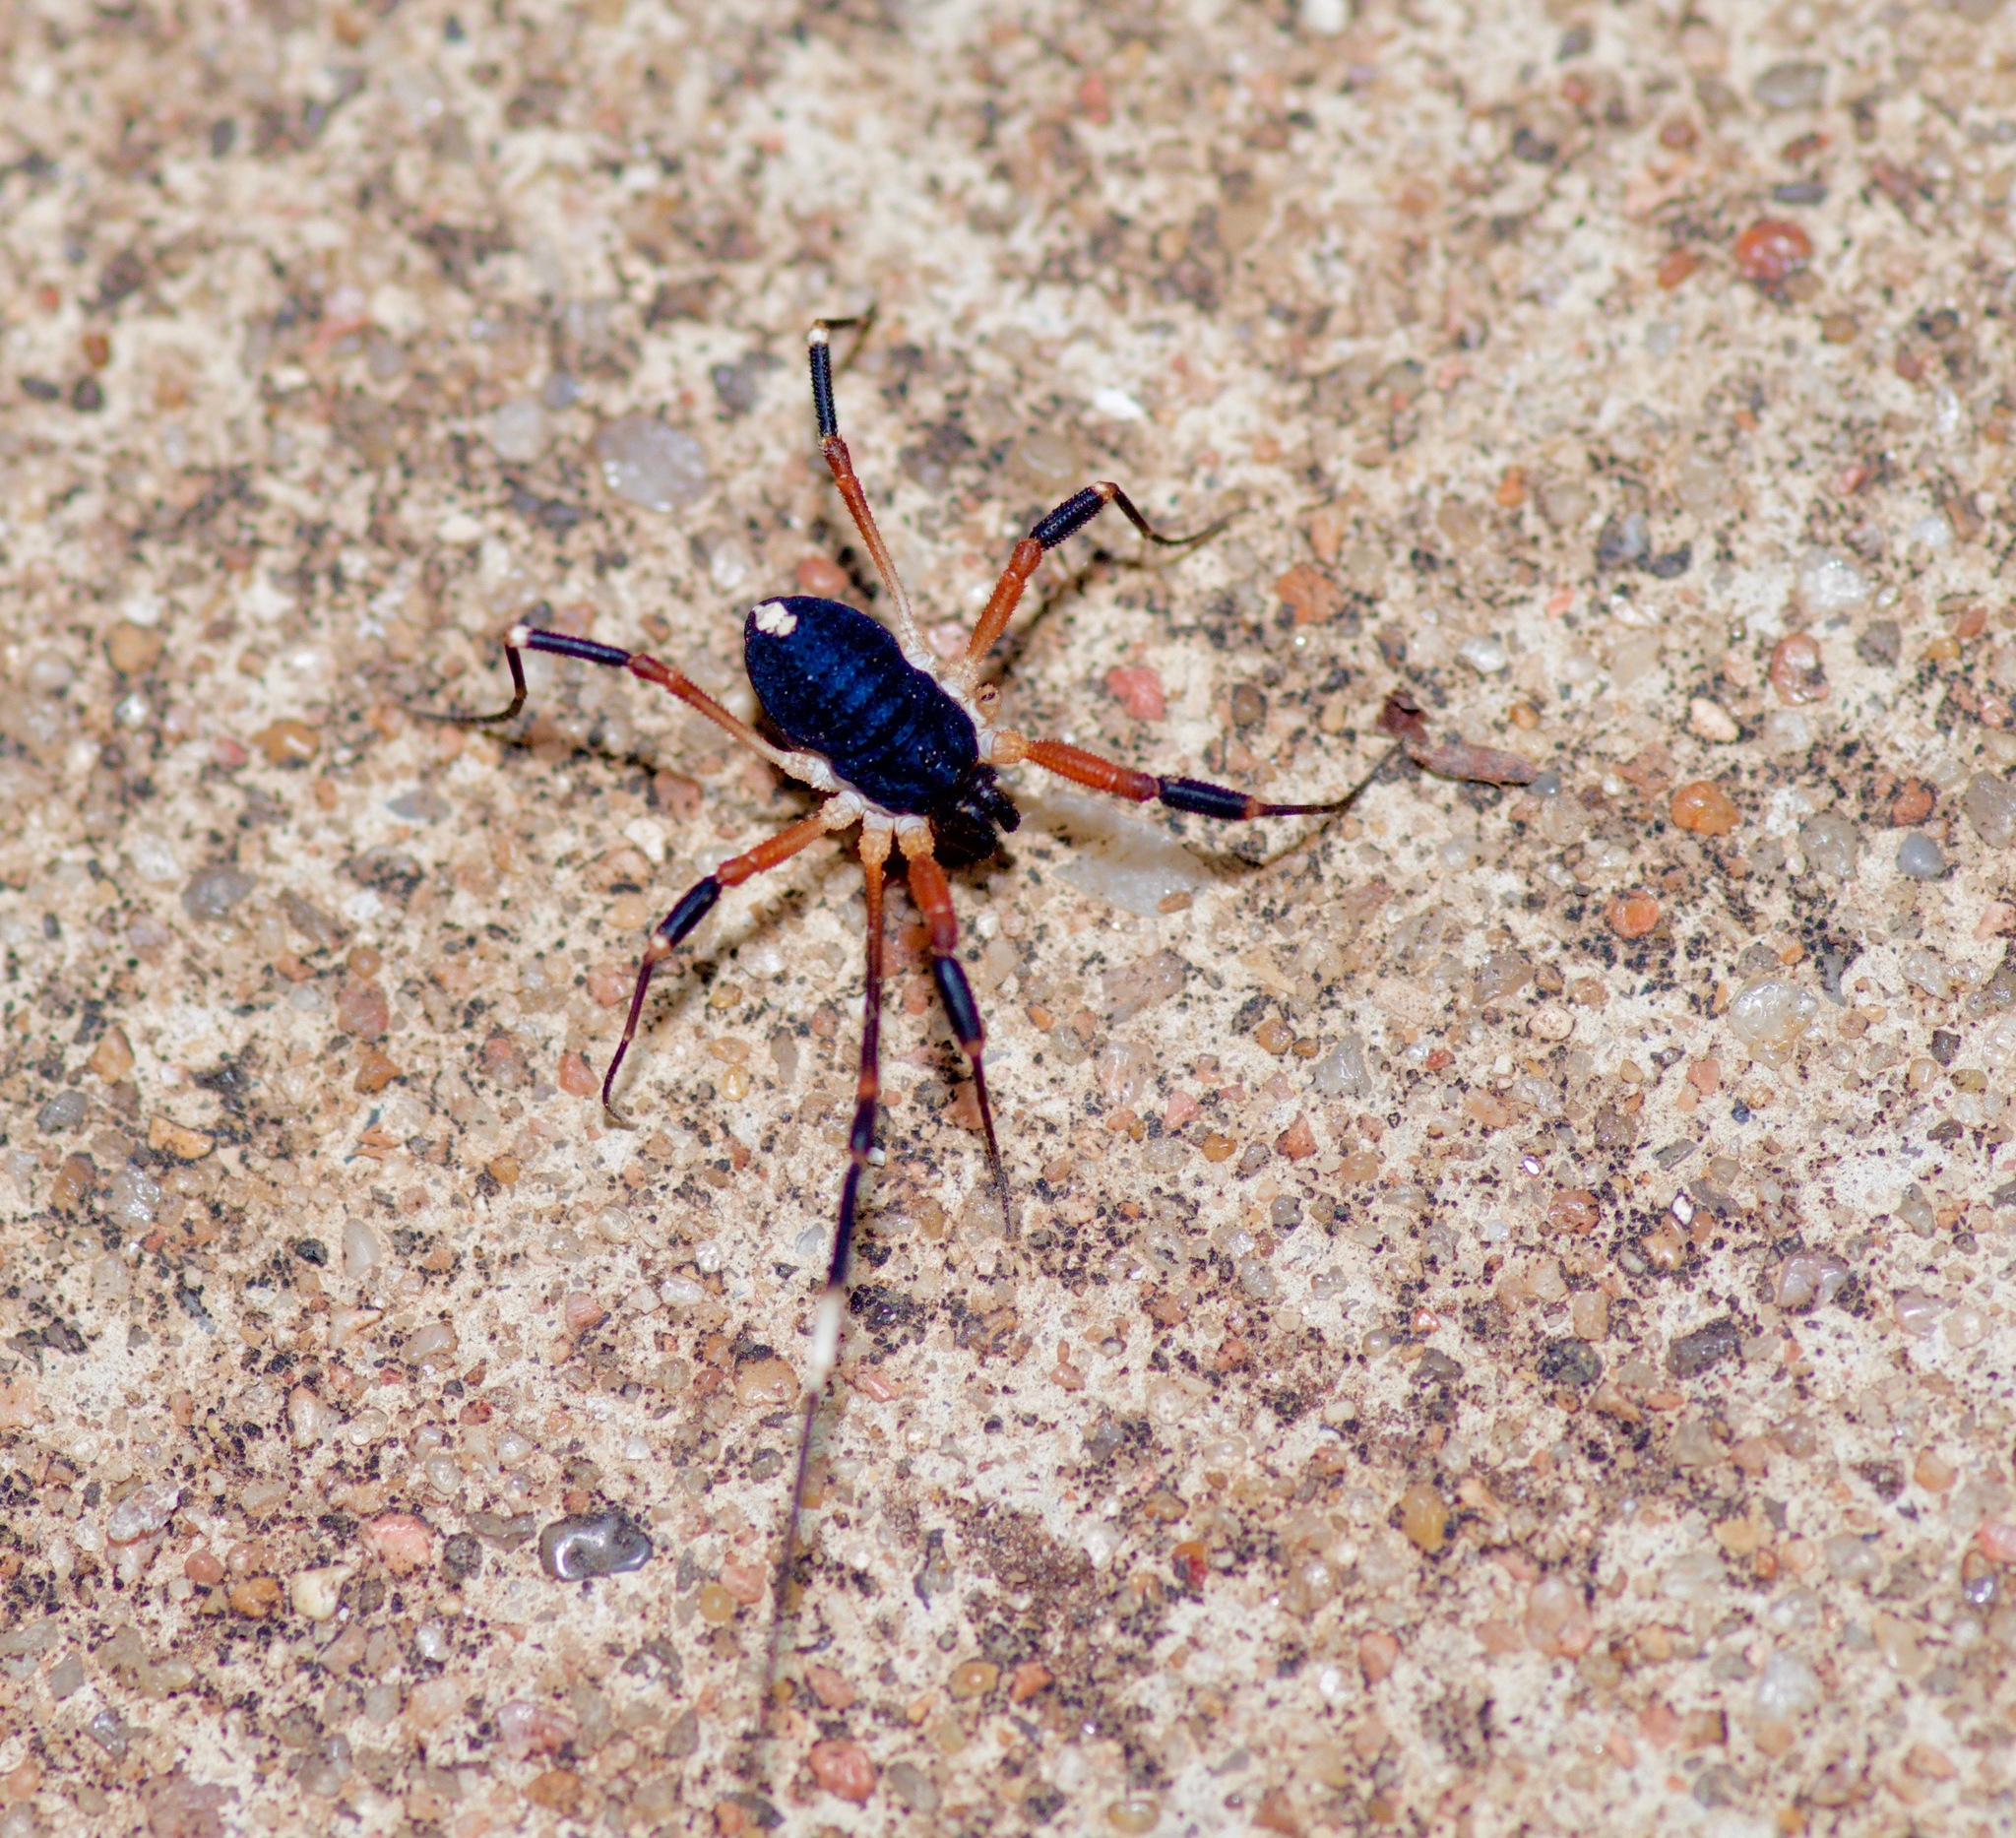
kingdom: Animalia
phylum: Arthropoda
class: Arachnida
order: Opiliones
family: Globipedidae
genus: Dalquestia
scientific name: Dalquestia formosa
